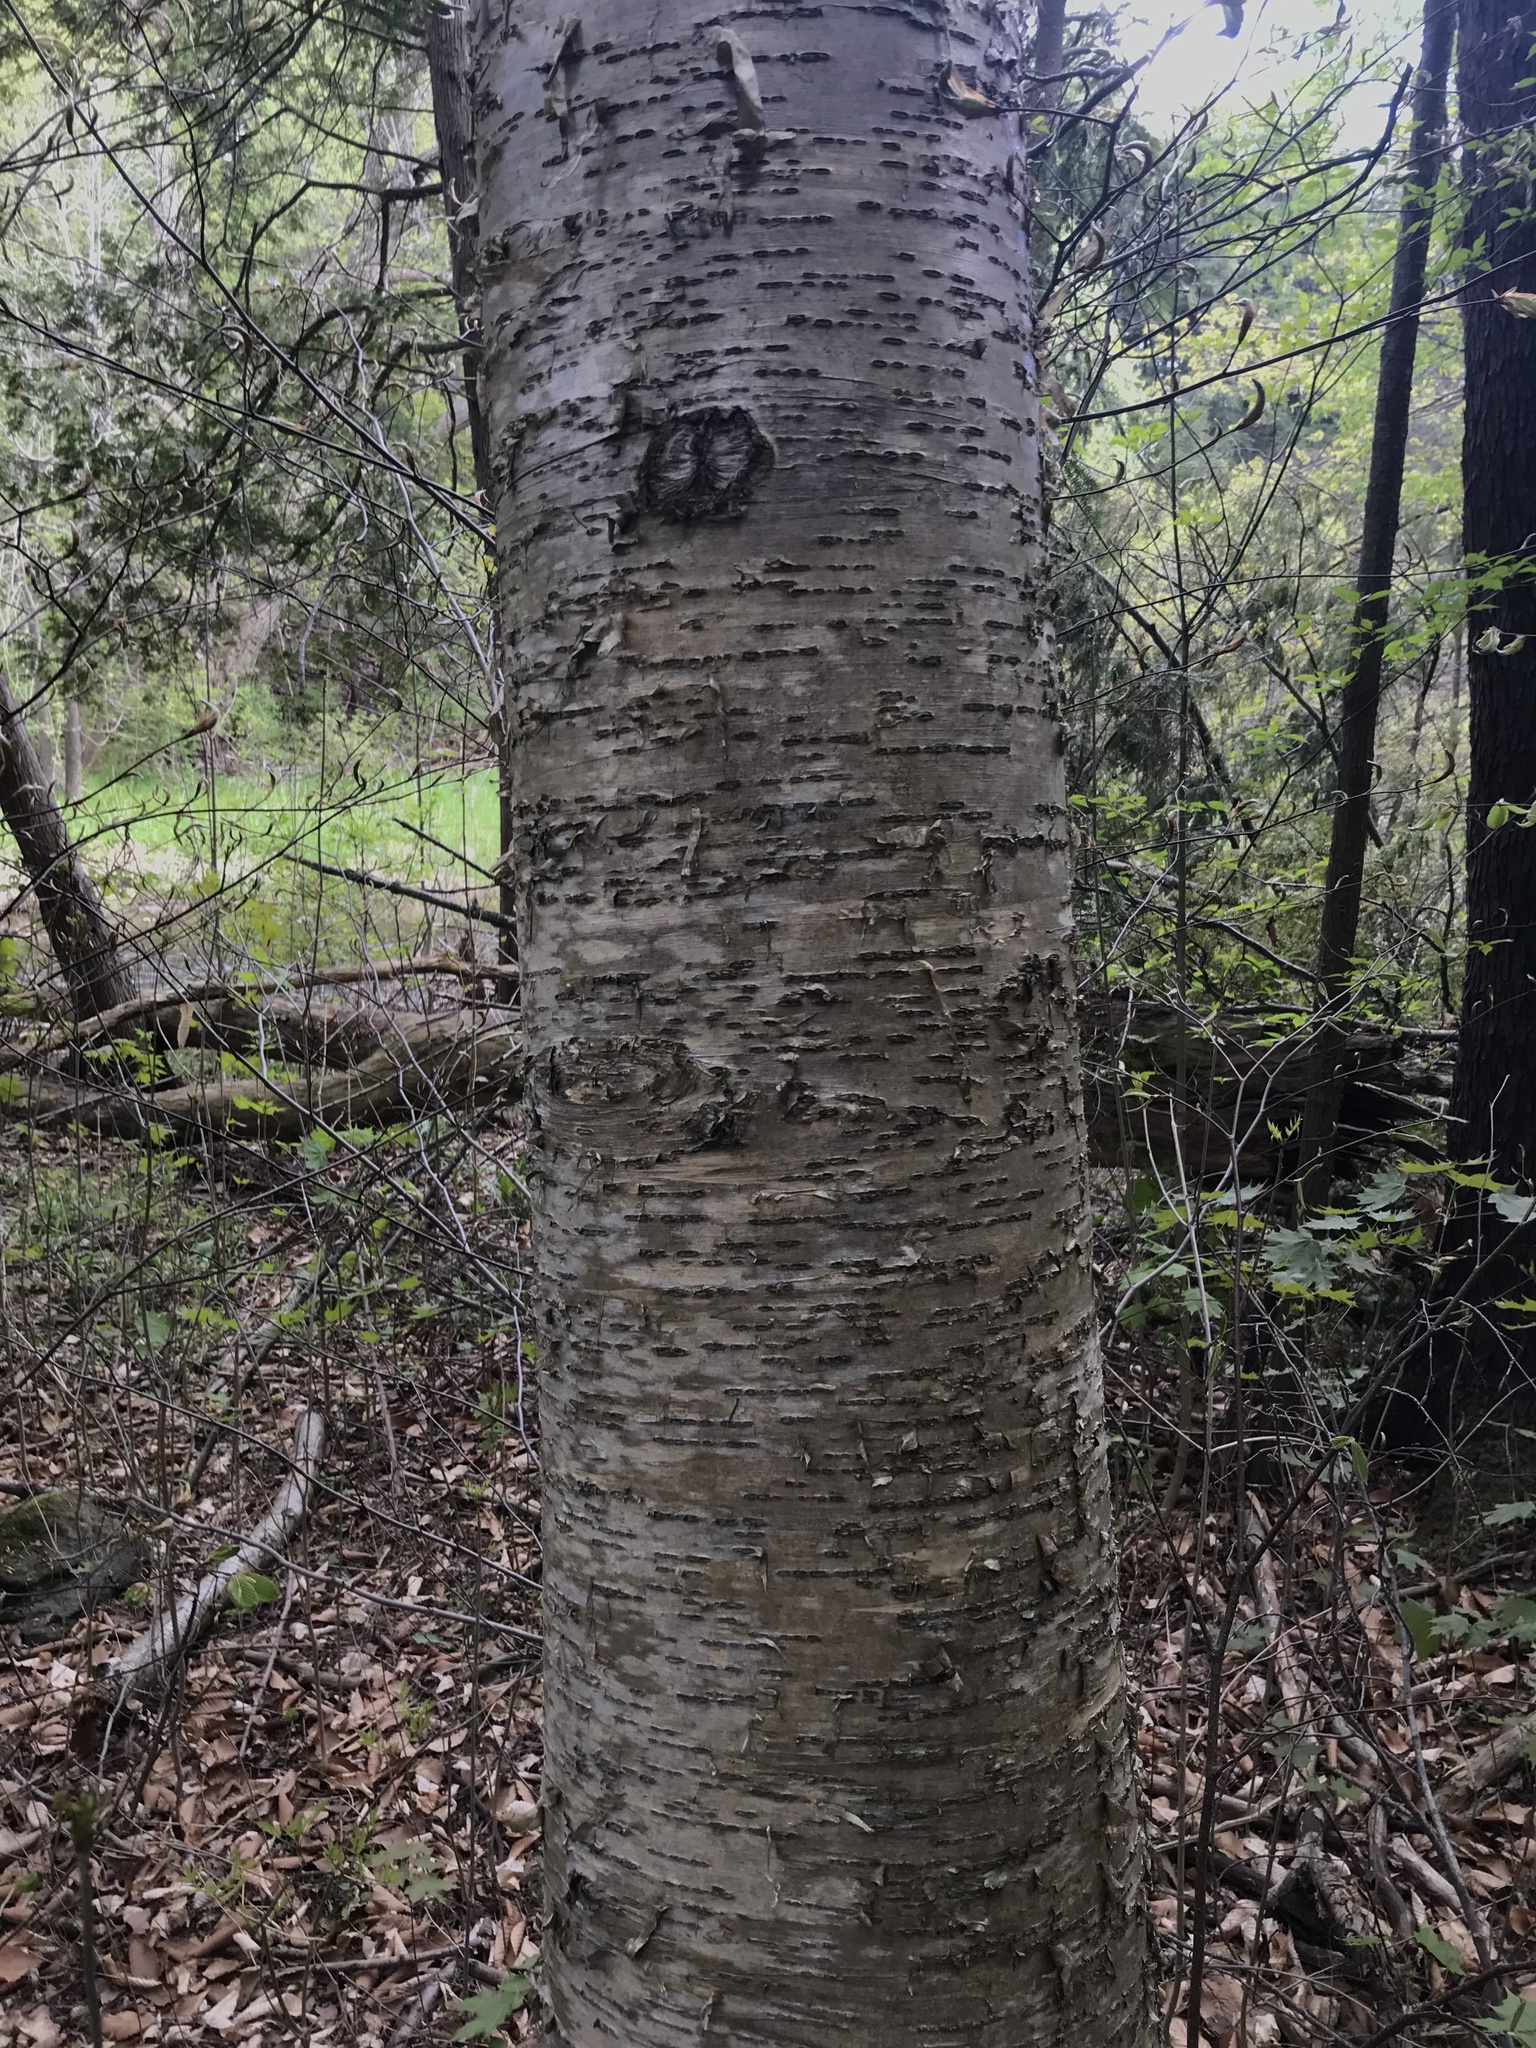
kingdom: Plantae
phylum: Tracheophyta
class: Magnoliopsida
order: Fagales
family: Betulaceae
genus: Betula
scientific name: Betula alleghaniensis
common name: Yellow birch
